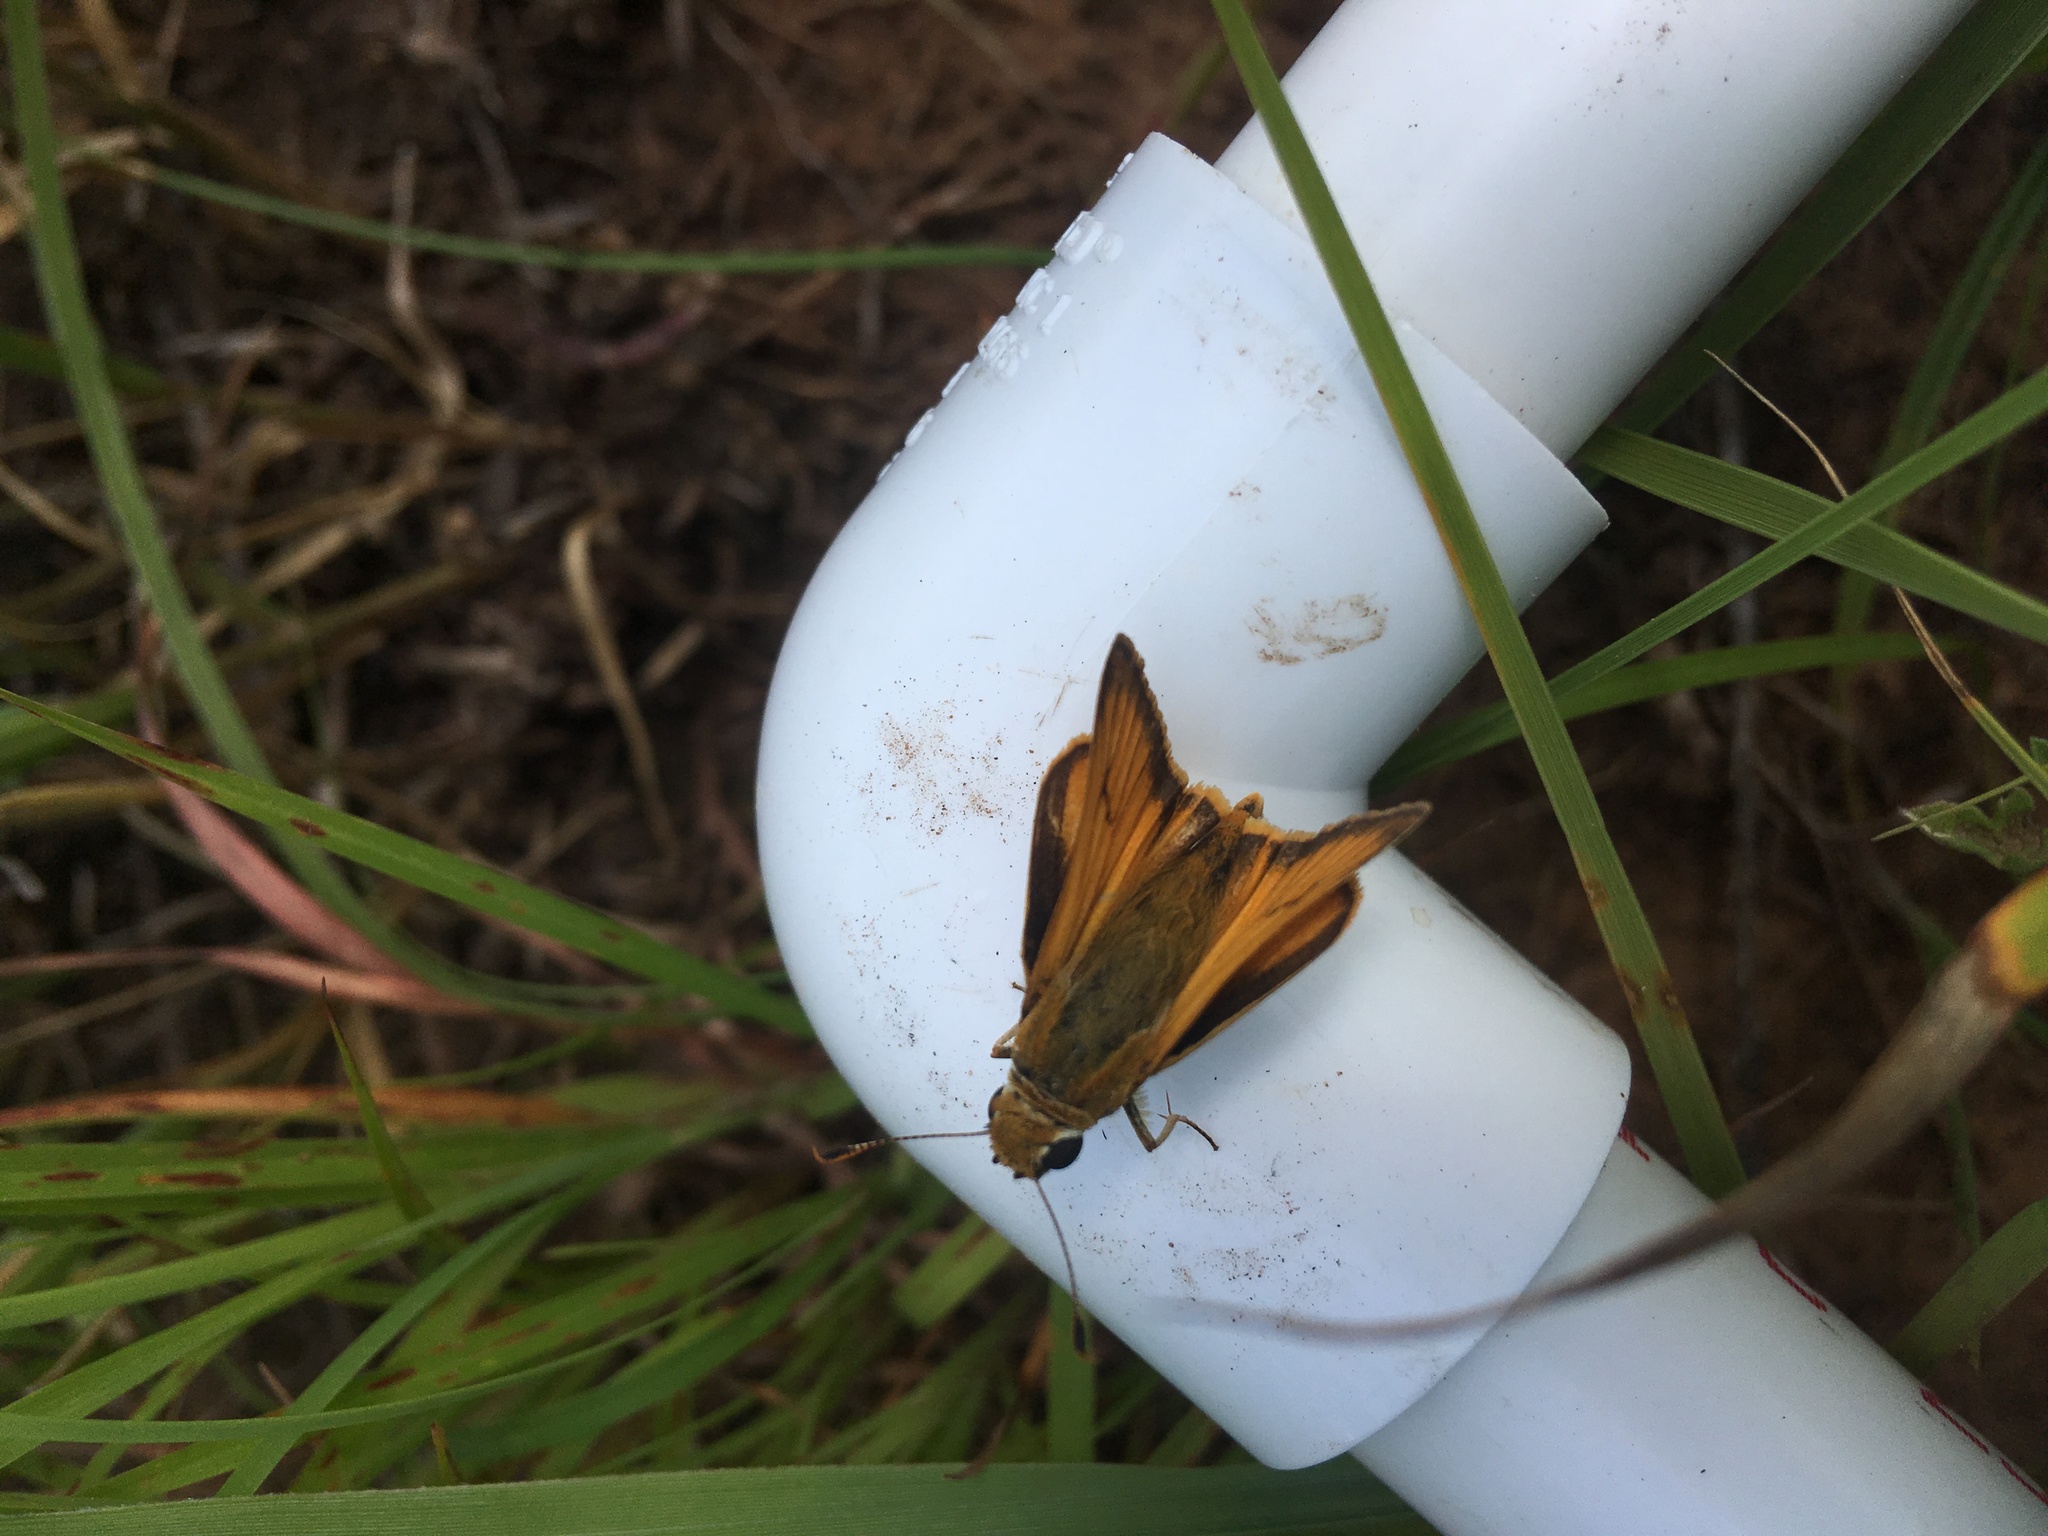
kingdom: Animalia
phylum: Arthropoda
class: Insecta
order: Lepidoptera
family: Hesperiidae
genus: Atrytone
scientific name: Atrytone delaware
